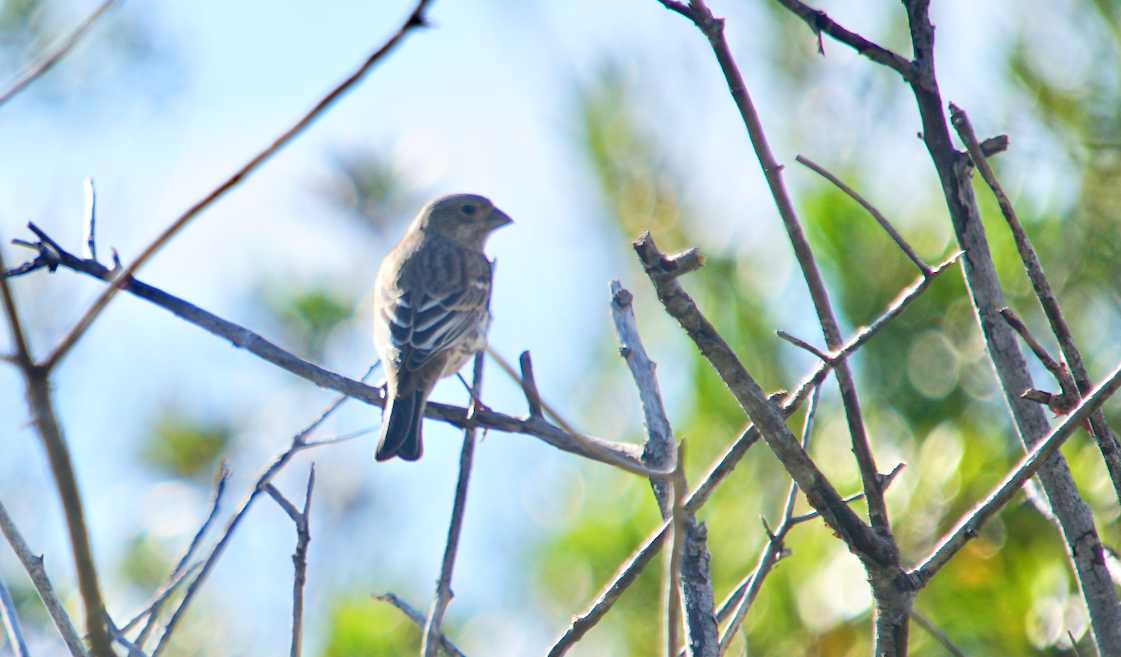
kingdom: Animalia
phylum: Chordata
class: Aves
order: Passeriformes
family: Fringillidae
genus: Haemorhous
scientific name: Haemorhous mexicanus
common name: House finch
